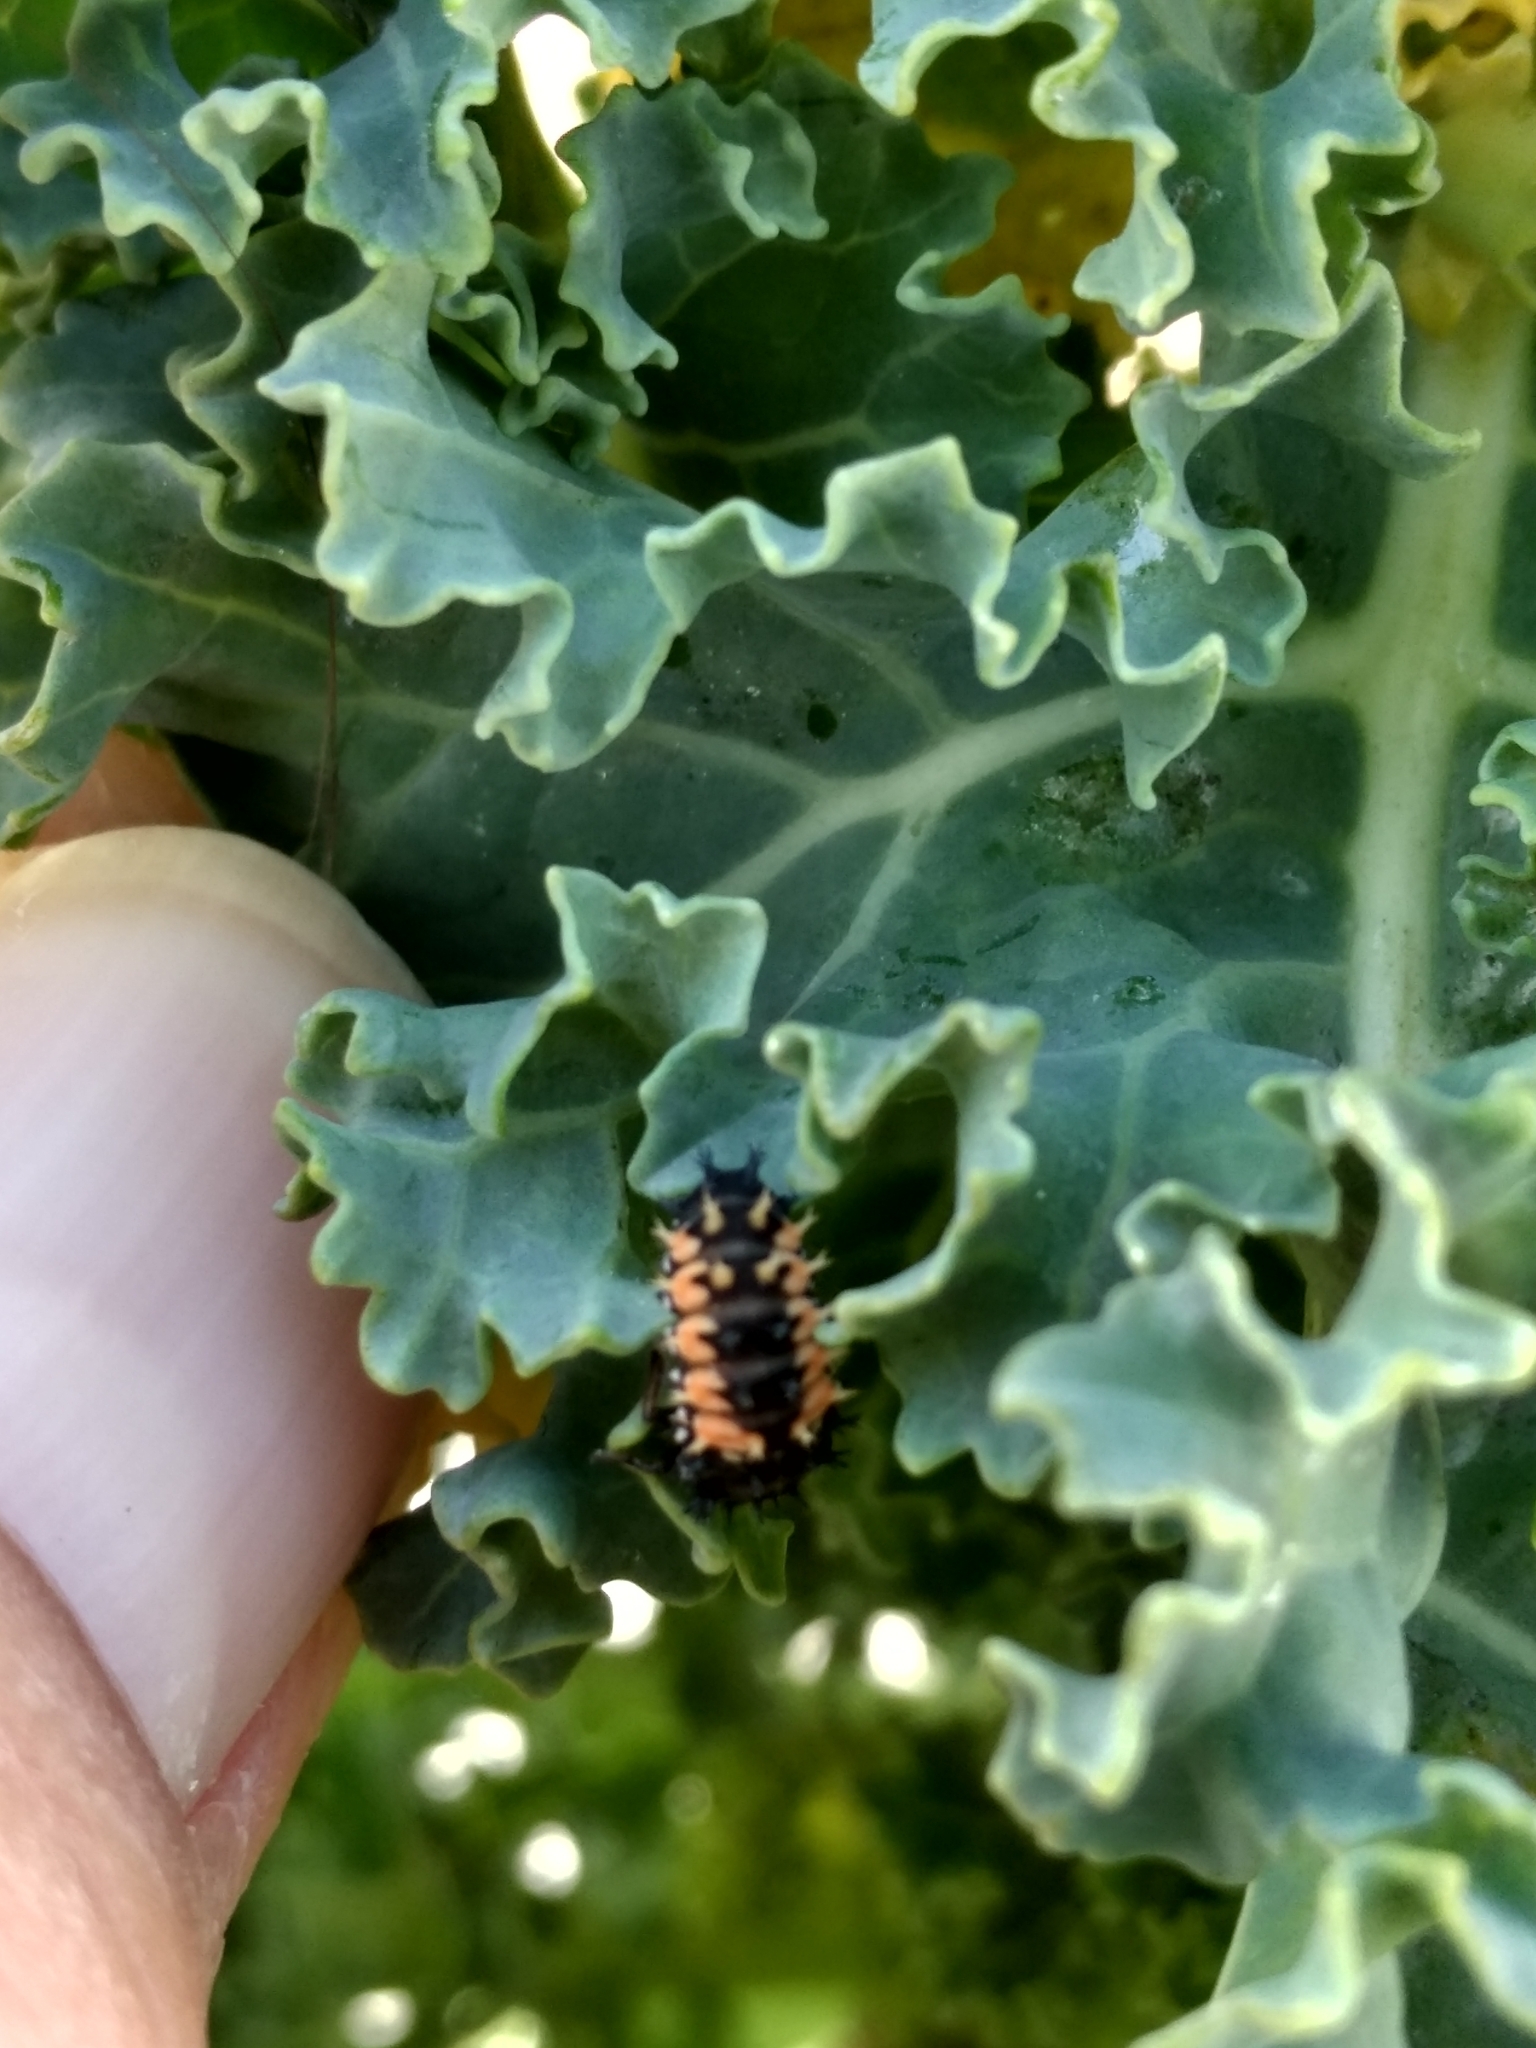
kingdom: Animalia
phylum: Arthropoda
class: Insecta
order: Coleoptera
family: Coccinellidae
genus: Harmonia
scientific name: Harmonia axyridis
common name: Harlequin ladybird
